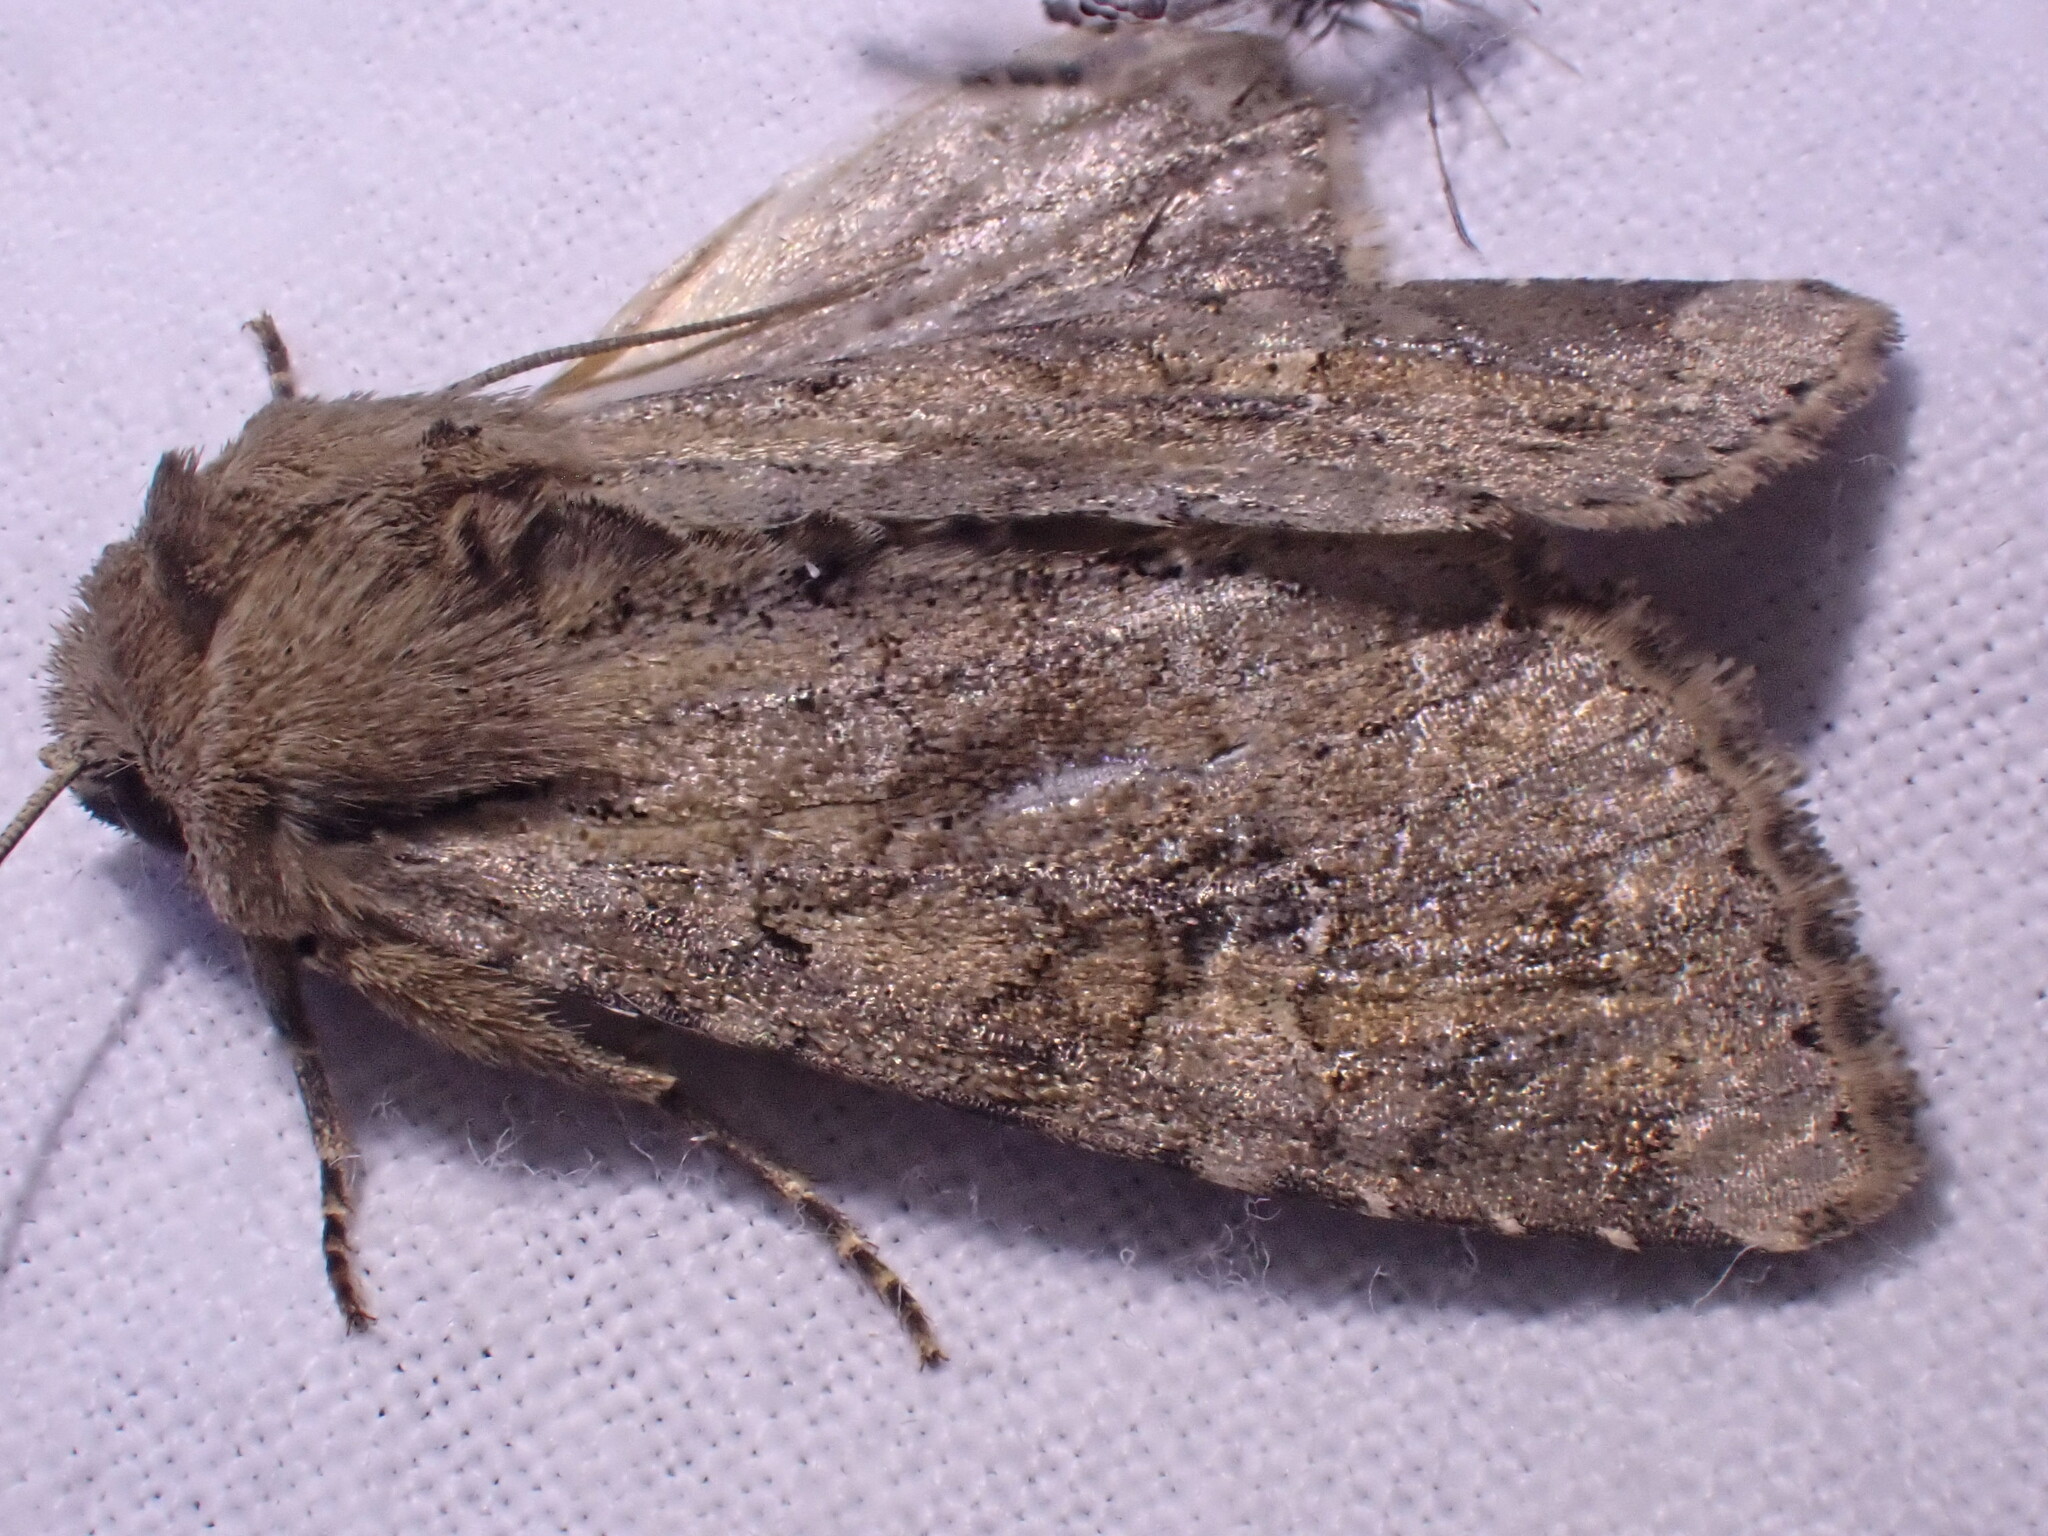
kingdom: Animalia
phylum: Arthropoda
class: Insecta
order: Lepidoptera
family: Noctuidae
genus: Apamea
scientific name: Apamea sordens
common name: Rustic shoulder-knot
